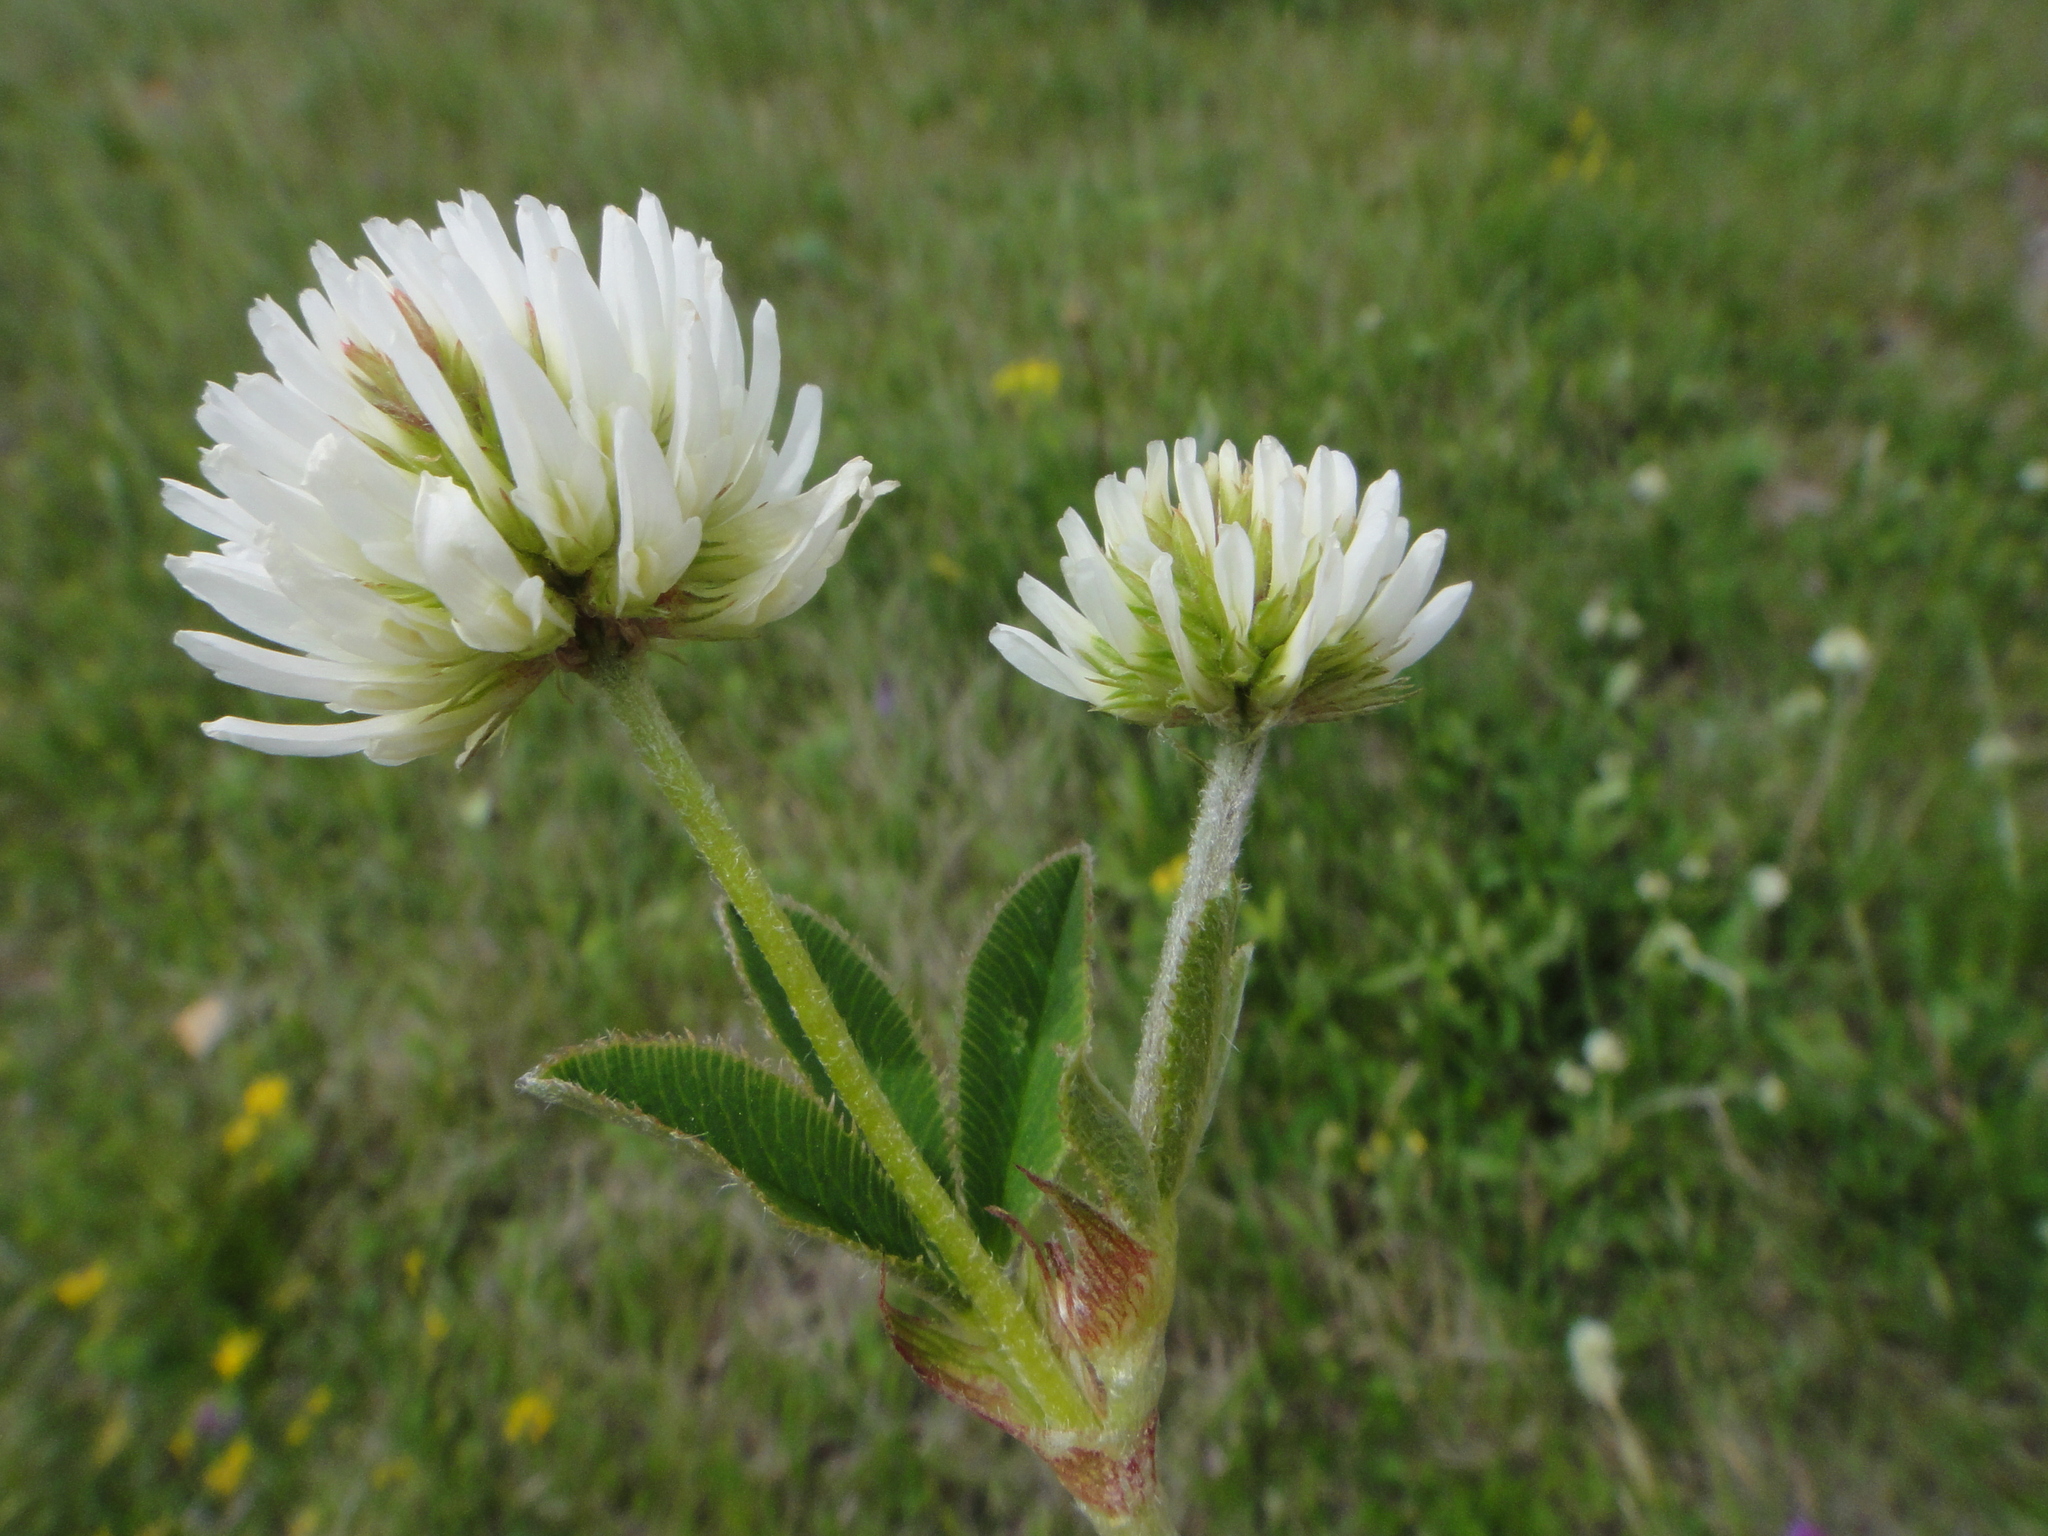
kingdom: Plantae
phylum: Tracheophyta
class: Magnoliopsida
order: Fabales
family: Fabaceae
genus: Trifolium
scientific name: Trifolium montanum
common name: Mountain clover
